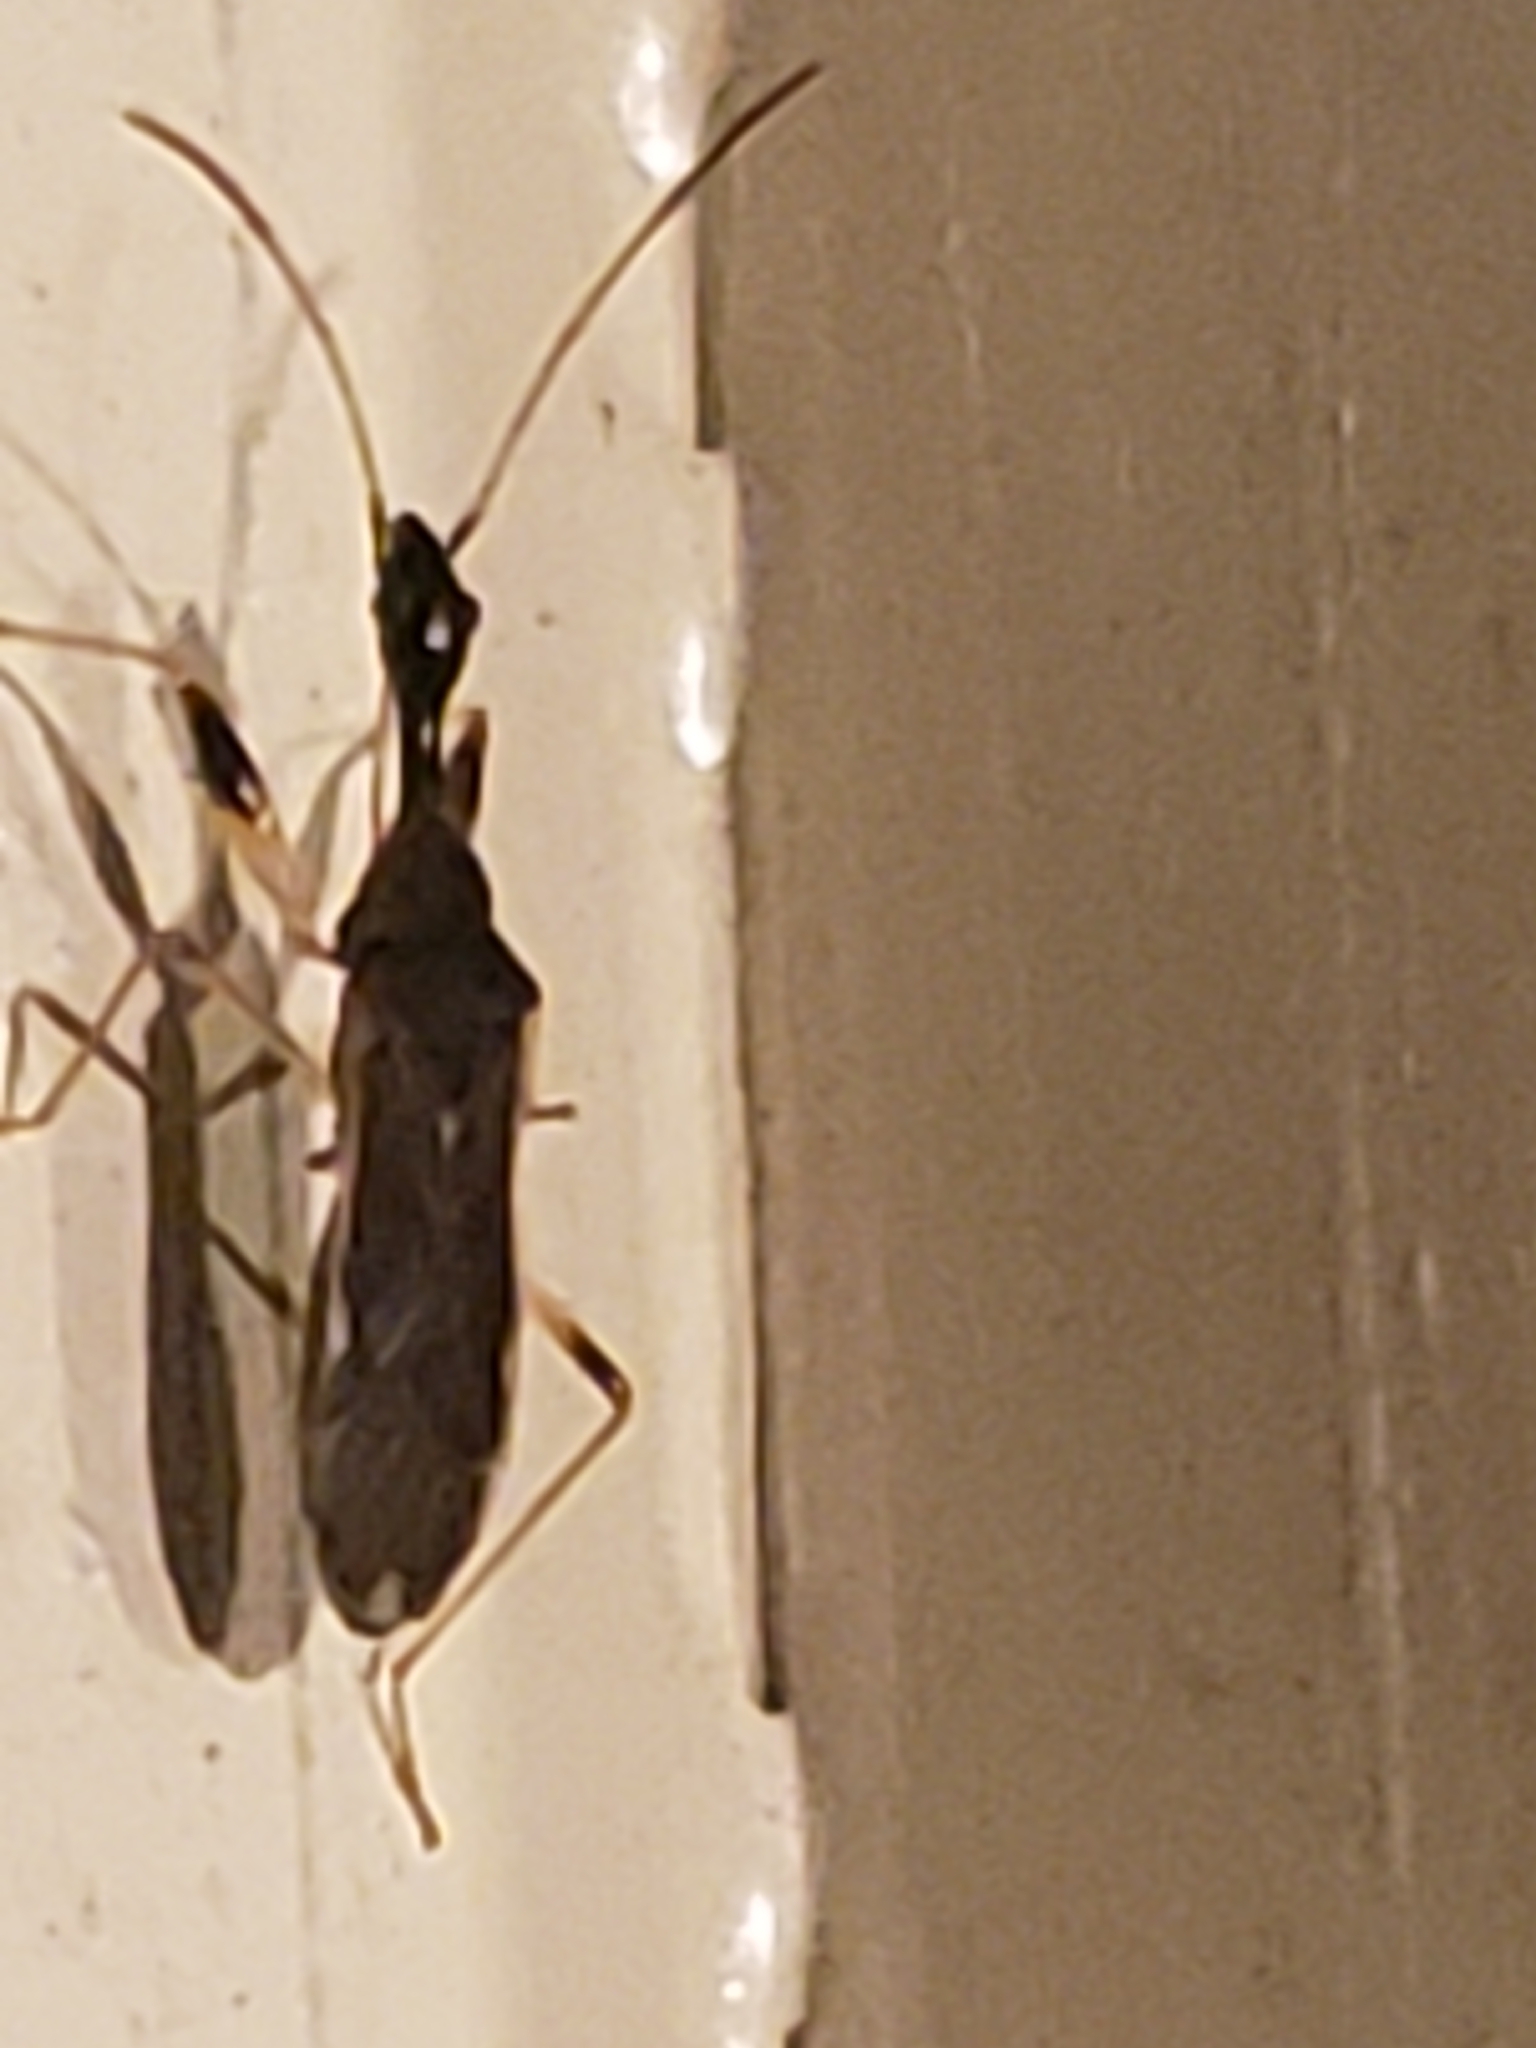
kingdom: Animalia
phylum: Arthropoda
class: Insecta
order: Hemiptera
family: Rhyparochromidae
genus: Myodocha
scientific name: Myodocha serripes
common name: Long-necked seed bug
